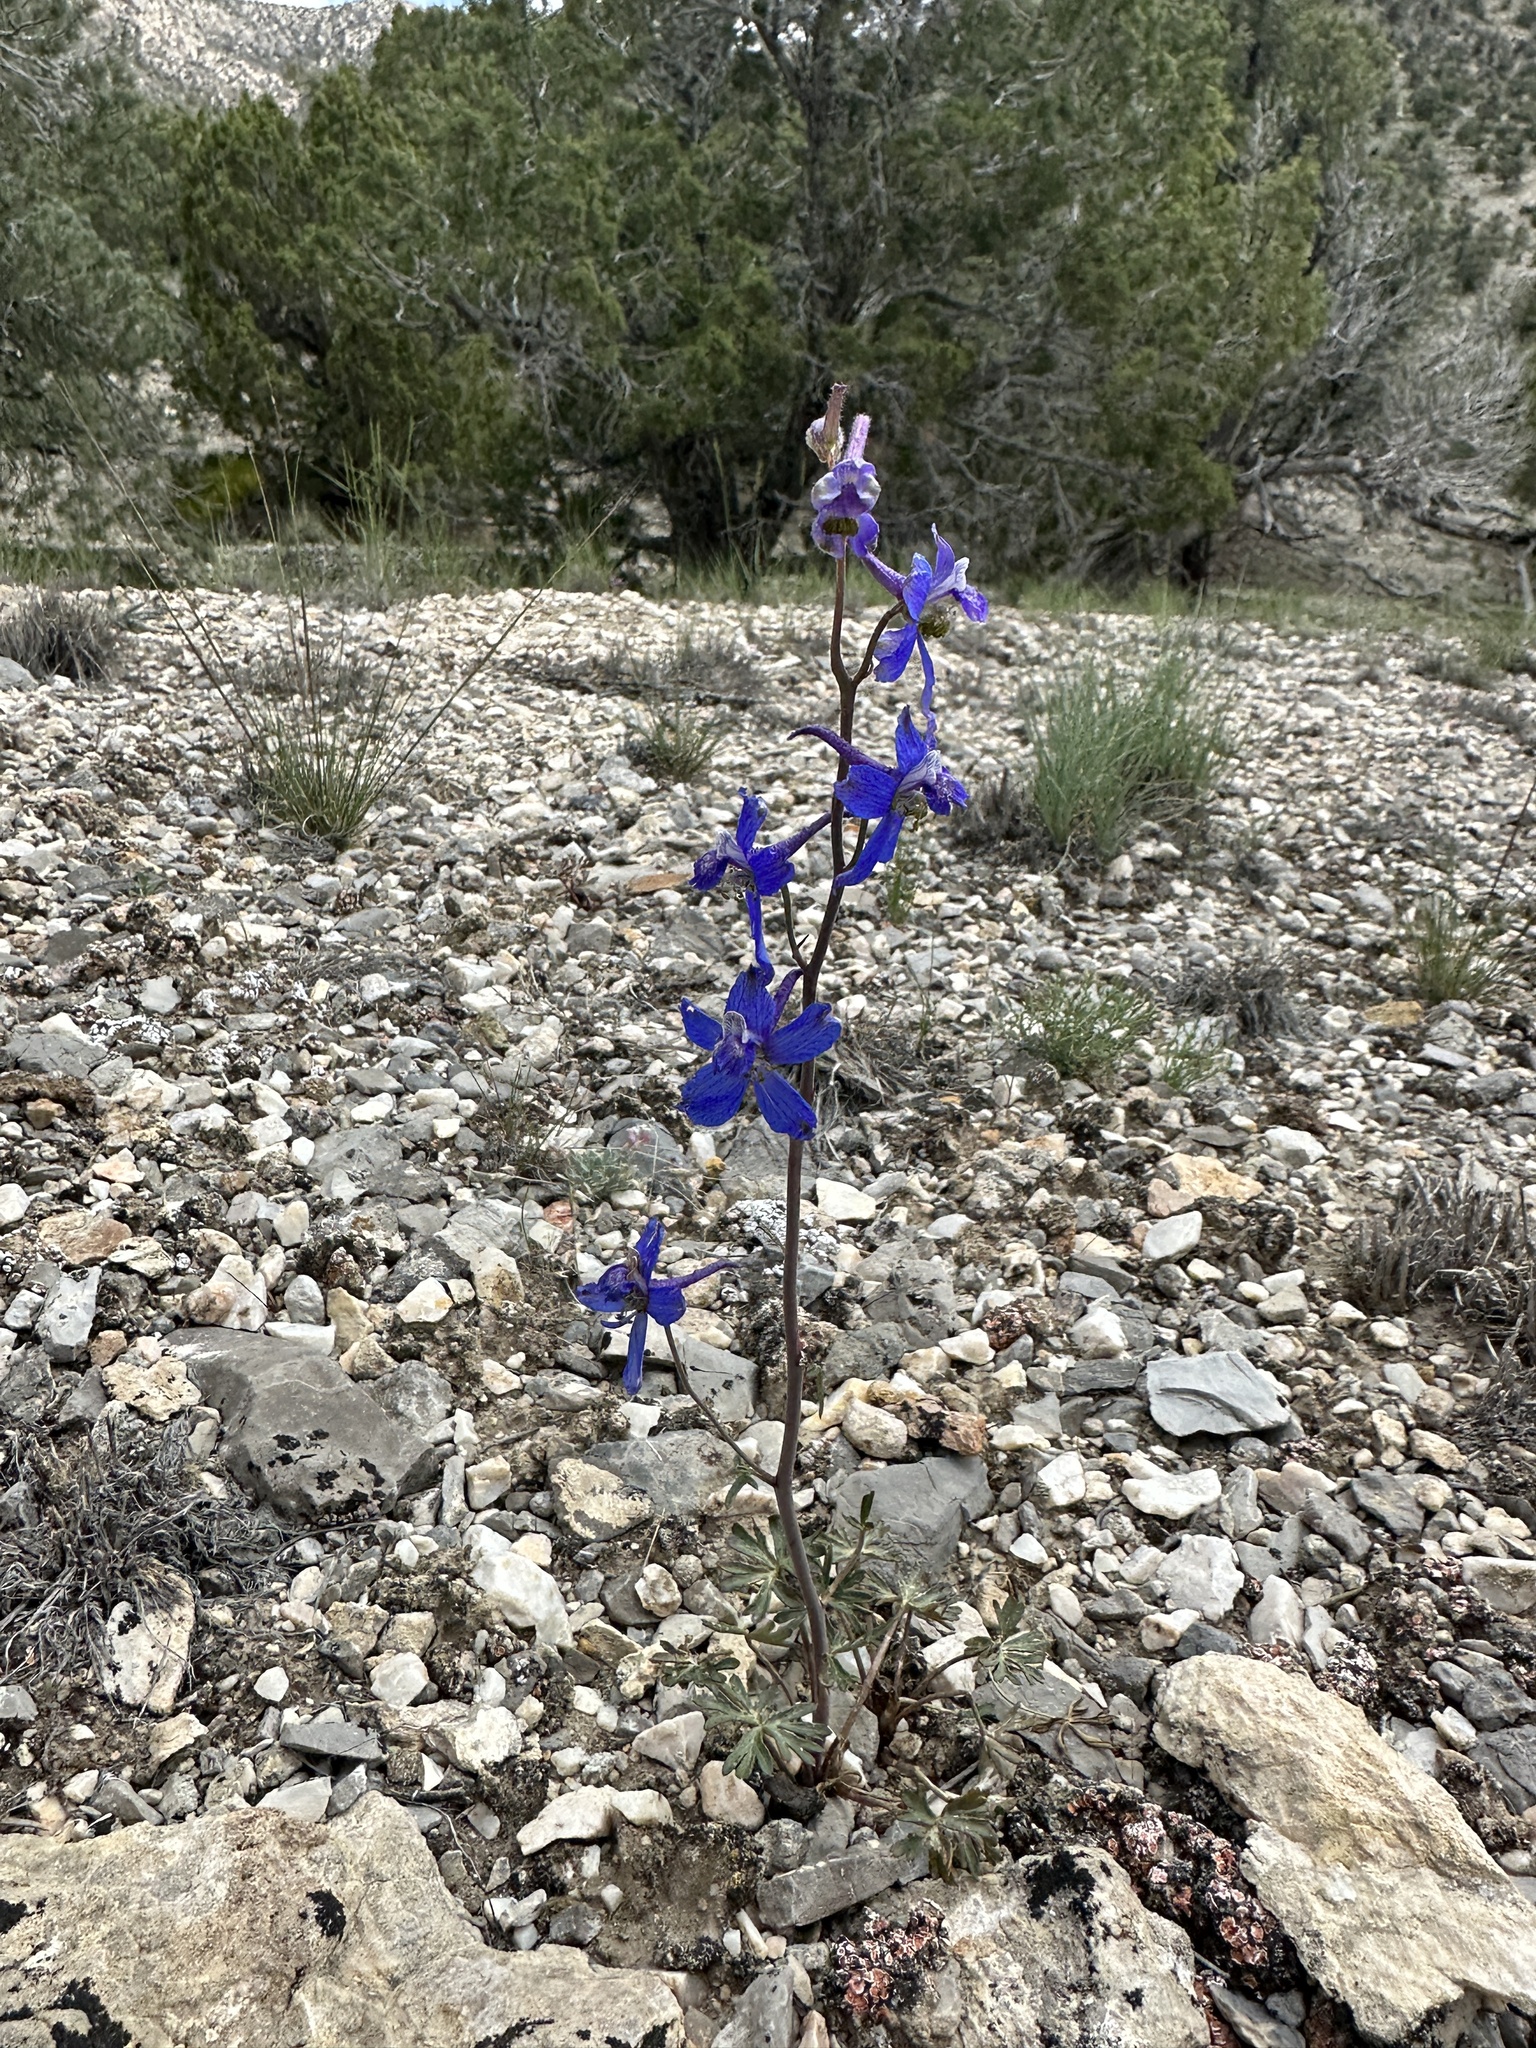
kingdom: Plantae
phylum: Tracheophyta
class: Magnoliopsida
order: Ranunculales
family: Ranunculaceae
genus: Delphinium
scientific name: Delphinium andersonii
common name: Anderson's larkspur
